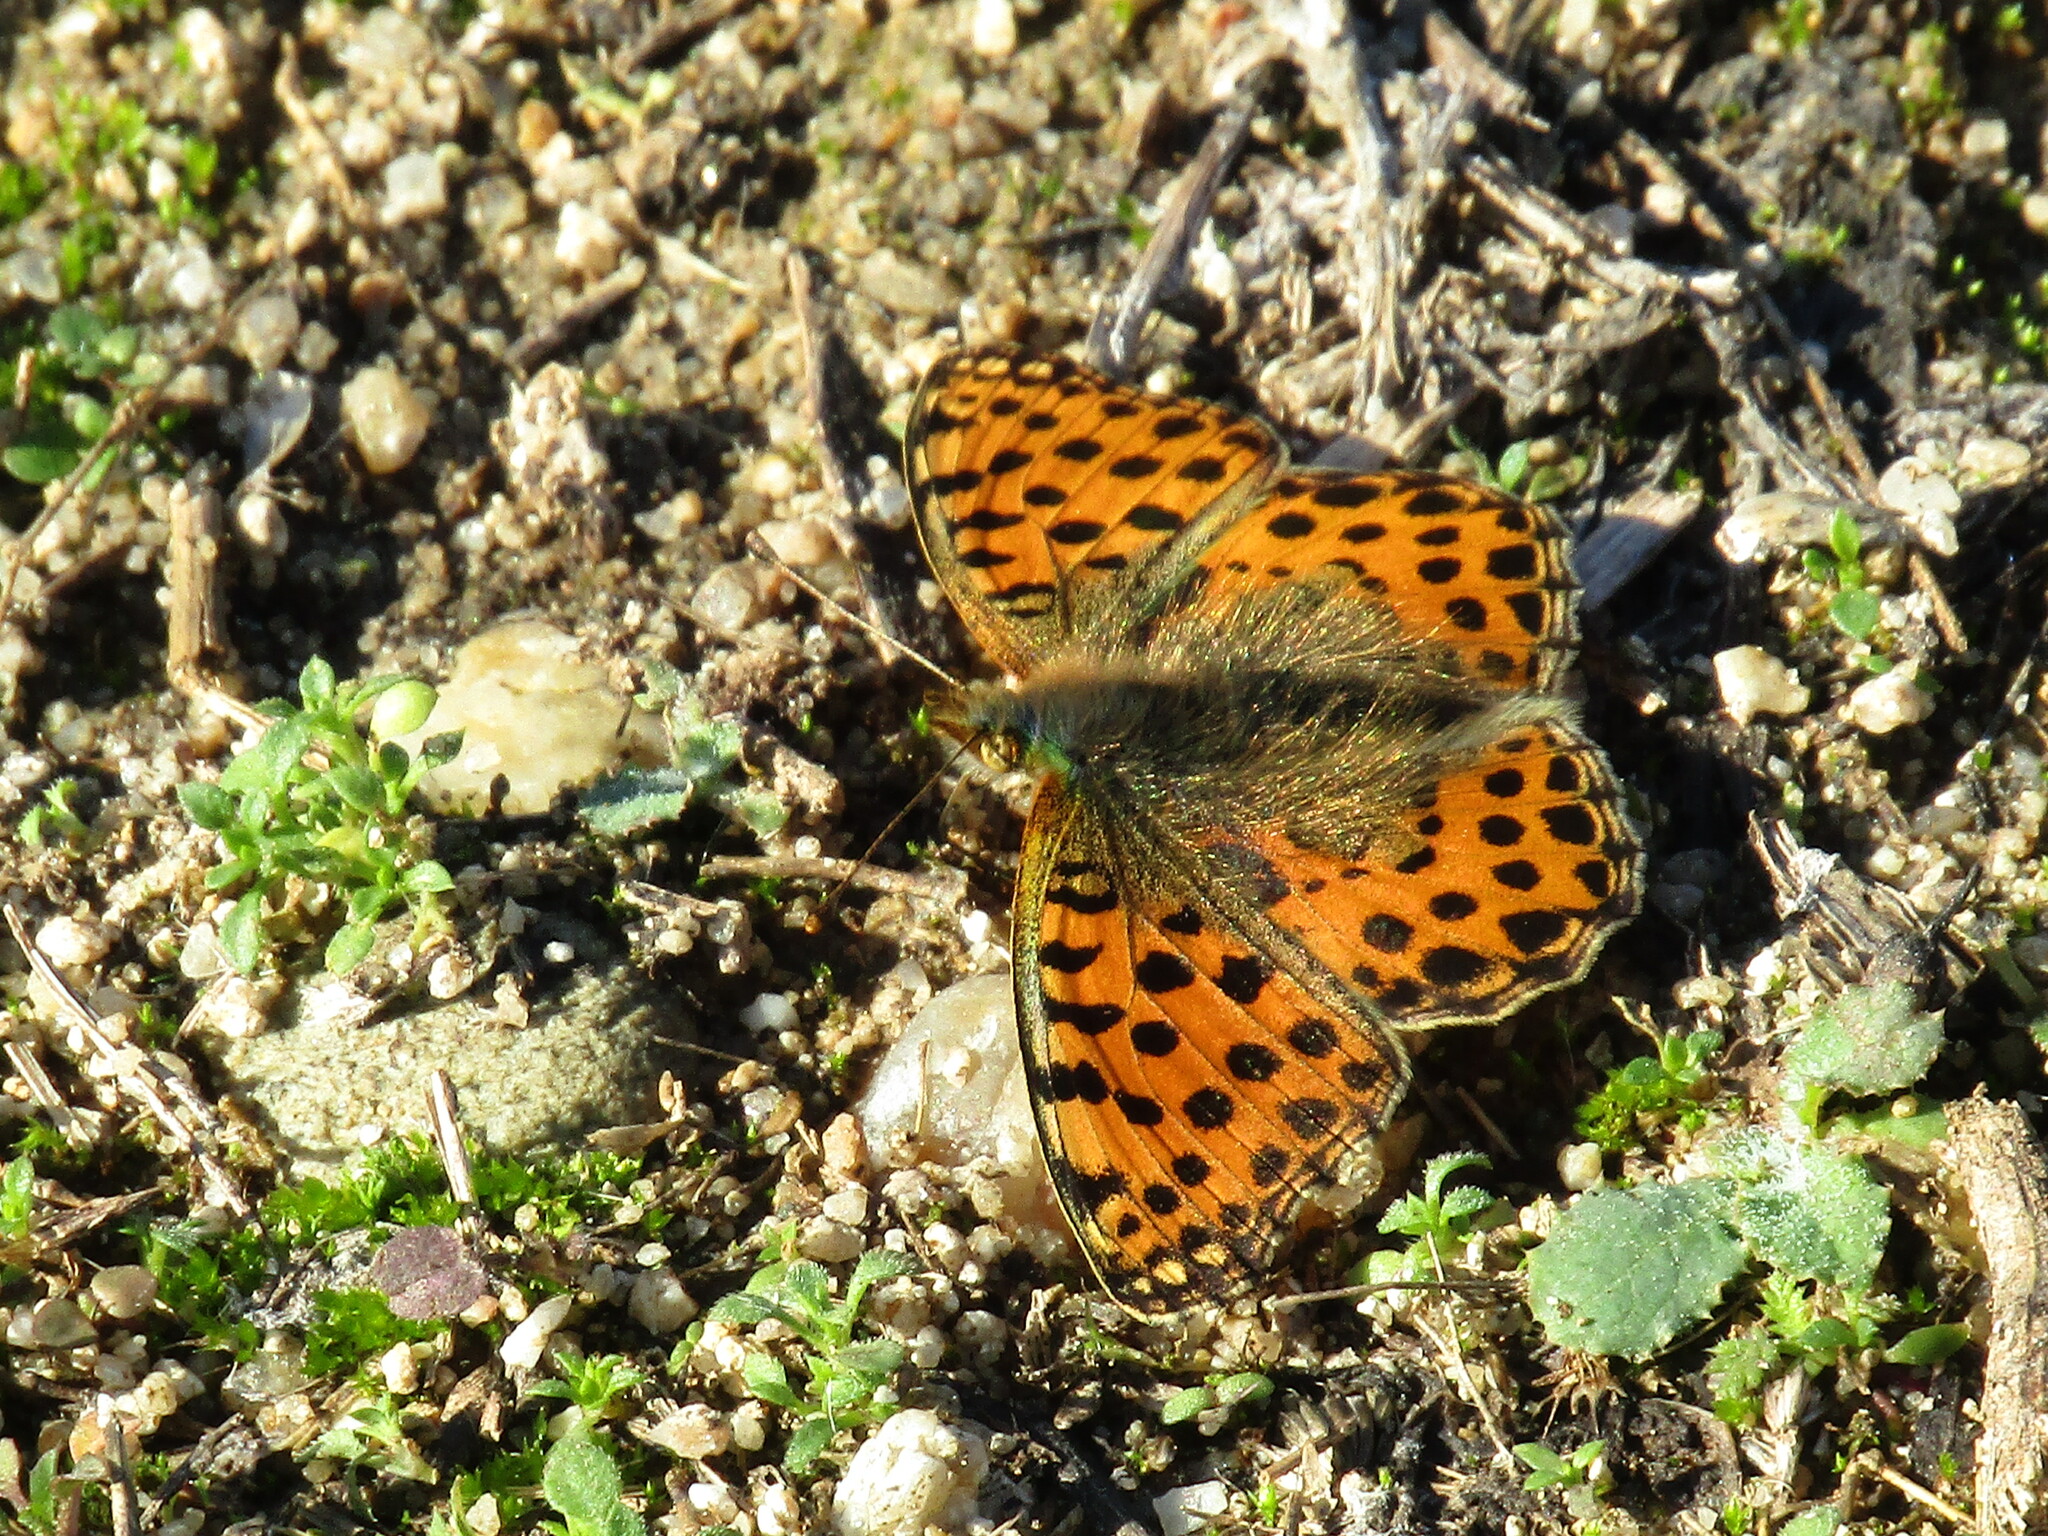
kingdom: Animalia
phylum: Arthropoda
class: Insecta
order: Lepidoptera
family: Nymphalidae
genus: Issoria
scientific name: Issoria lathonia
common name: Queen of spain fritillary
